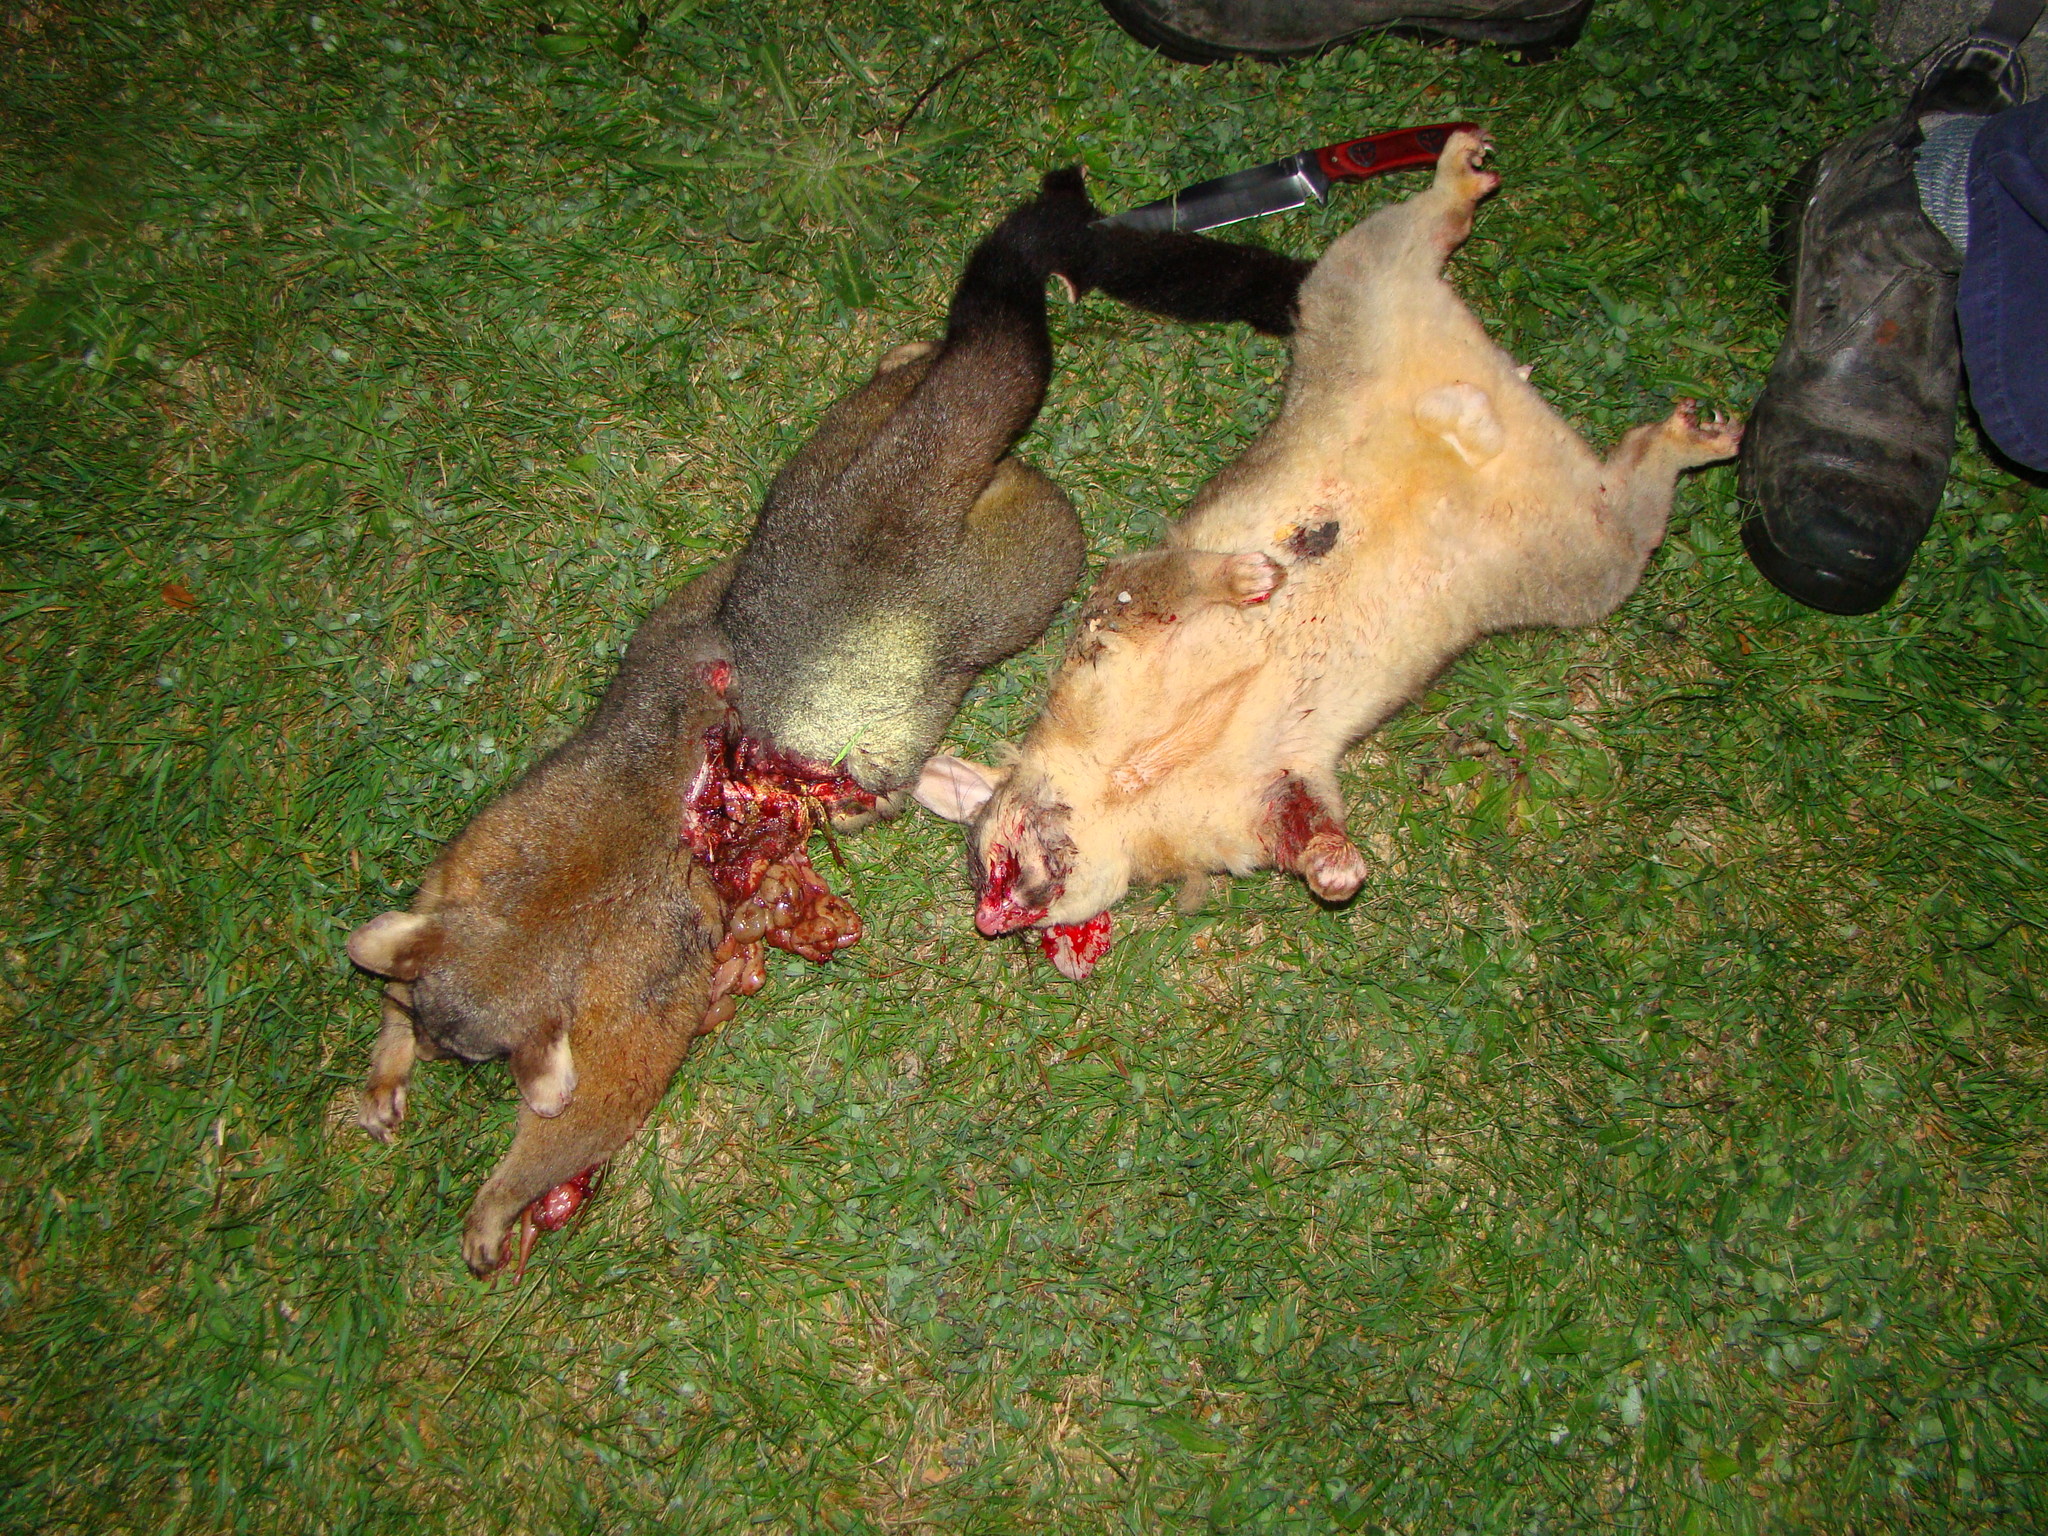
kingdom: Animalia
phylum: Chordata
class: Mammalia
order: Diprotodontia
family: Phalangeridae
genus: Trichosurus
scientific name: Trichosurus vulpecula
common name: Common brushtail
